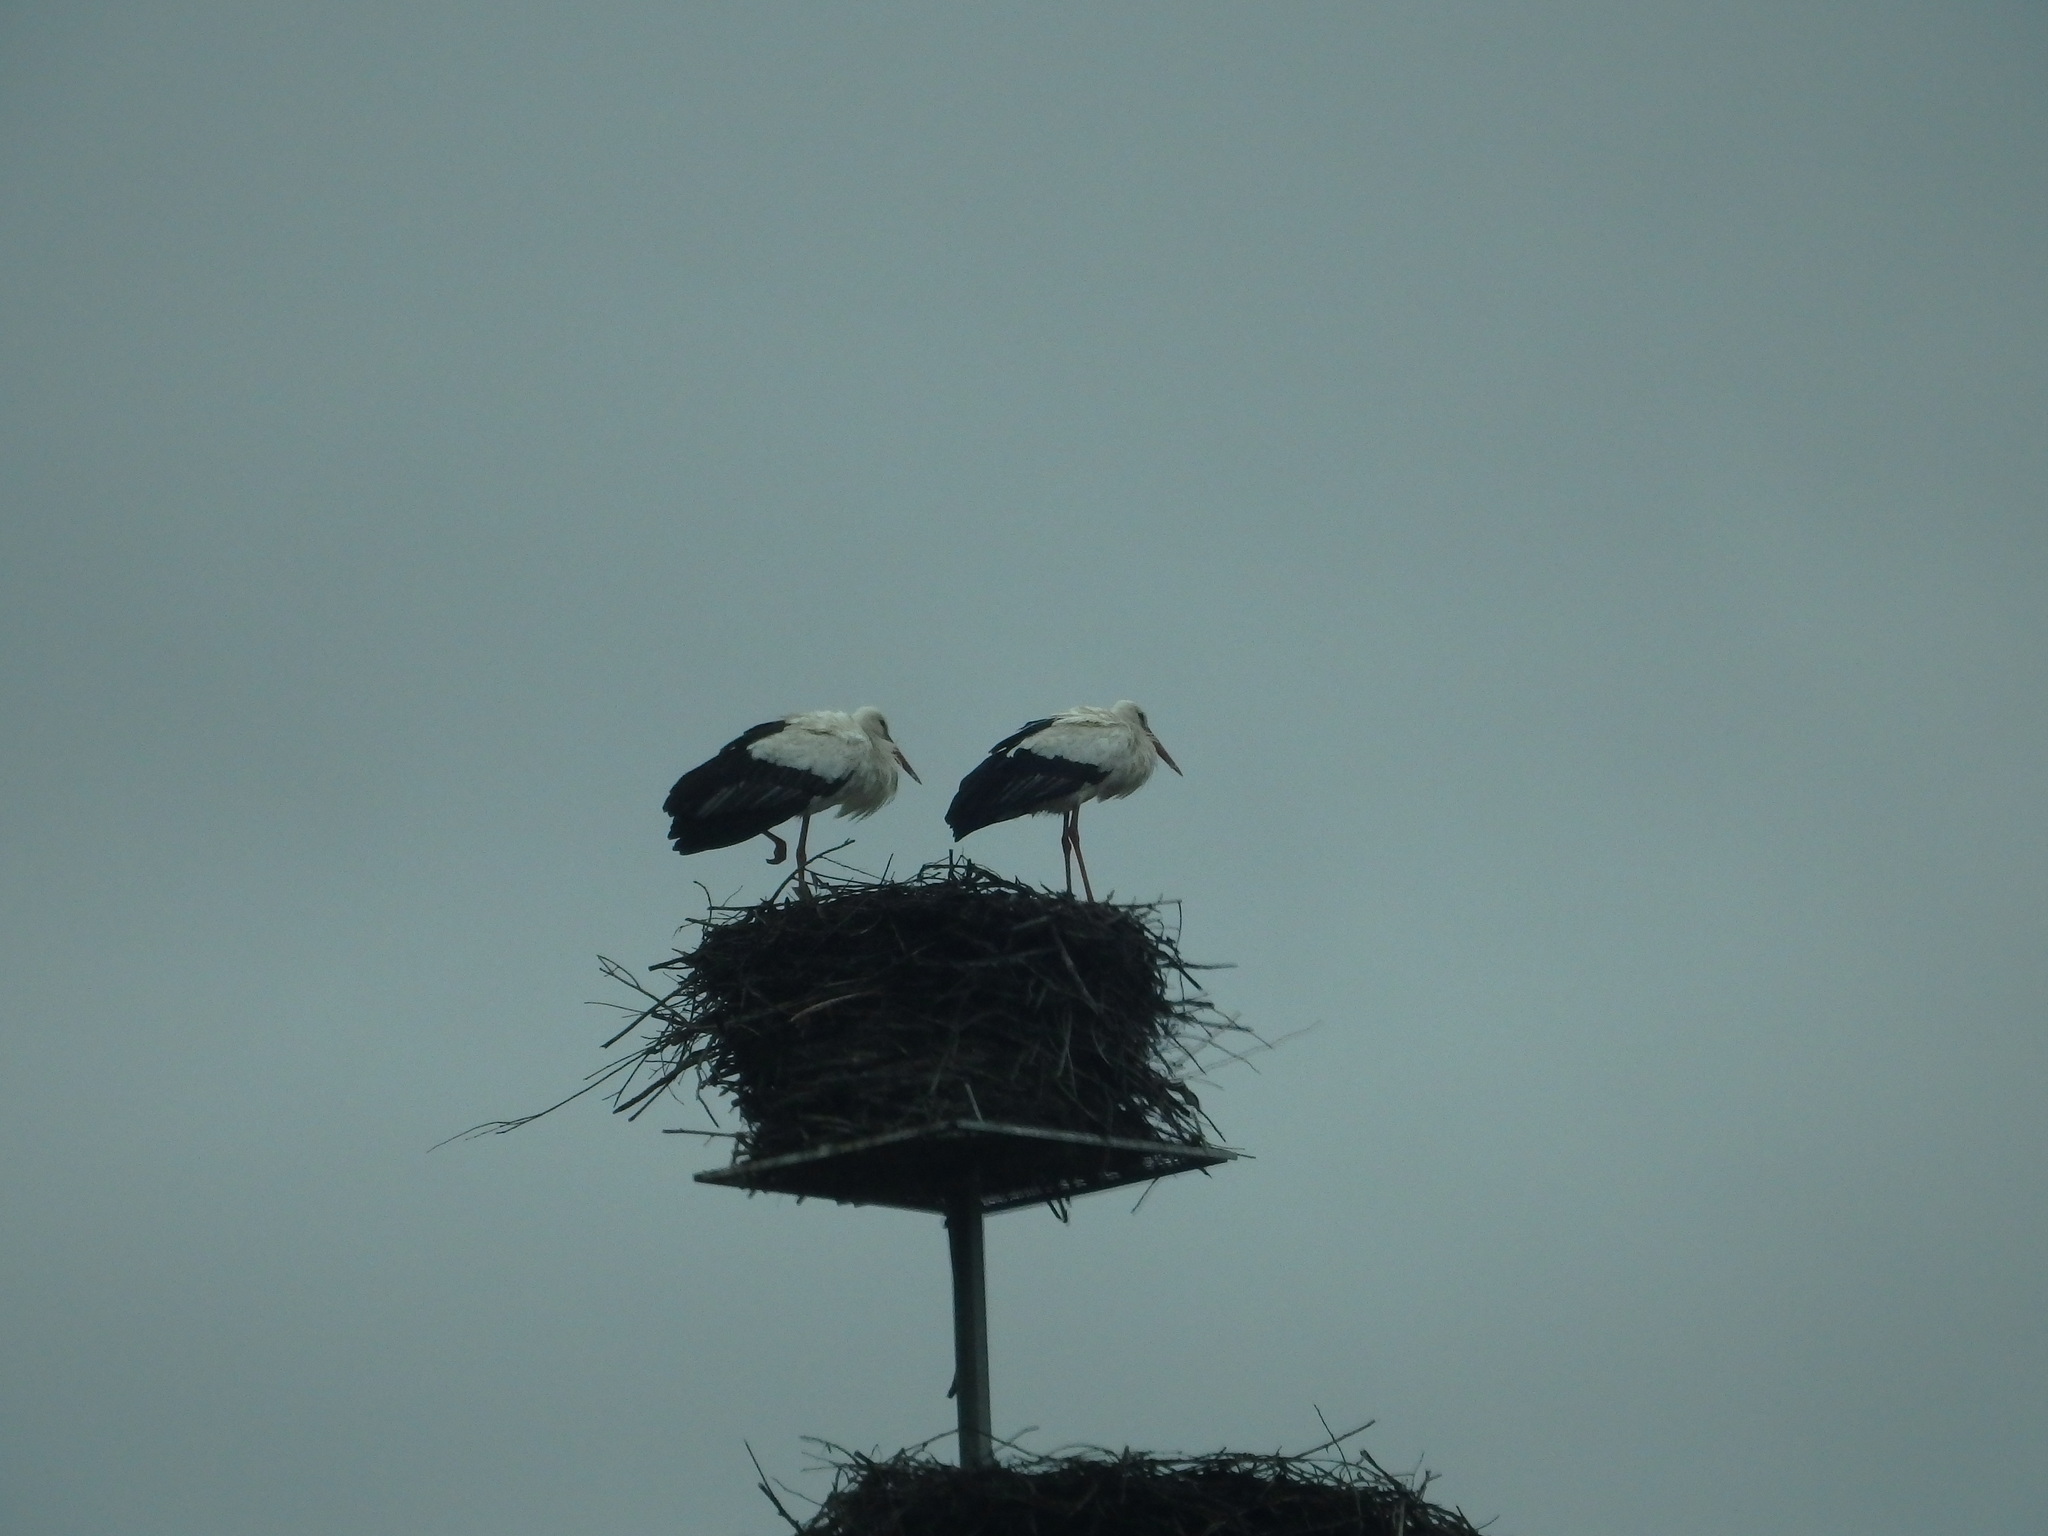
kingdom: Animalia
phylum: Chordata
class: Aves
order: Ciconiiformes
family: Ciconiidae
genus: Ciconia
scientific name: Ciconia ciconia
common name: White stork
